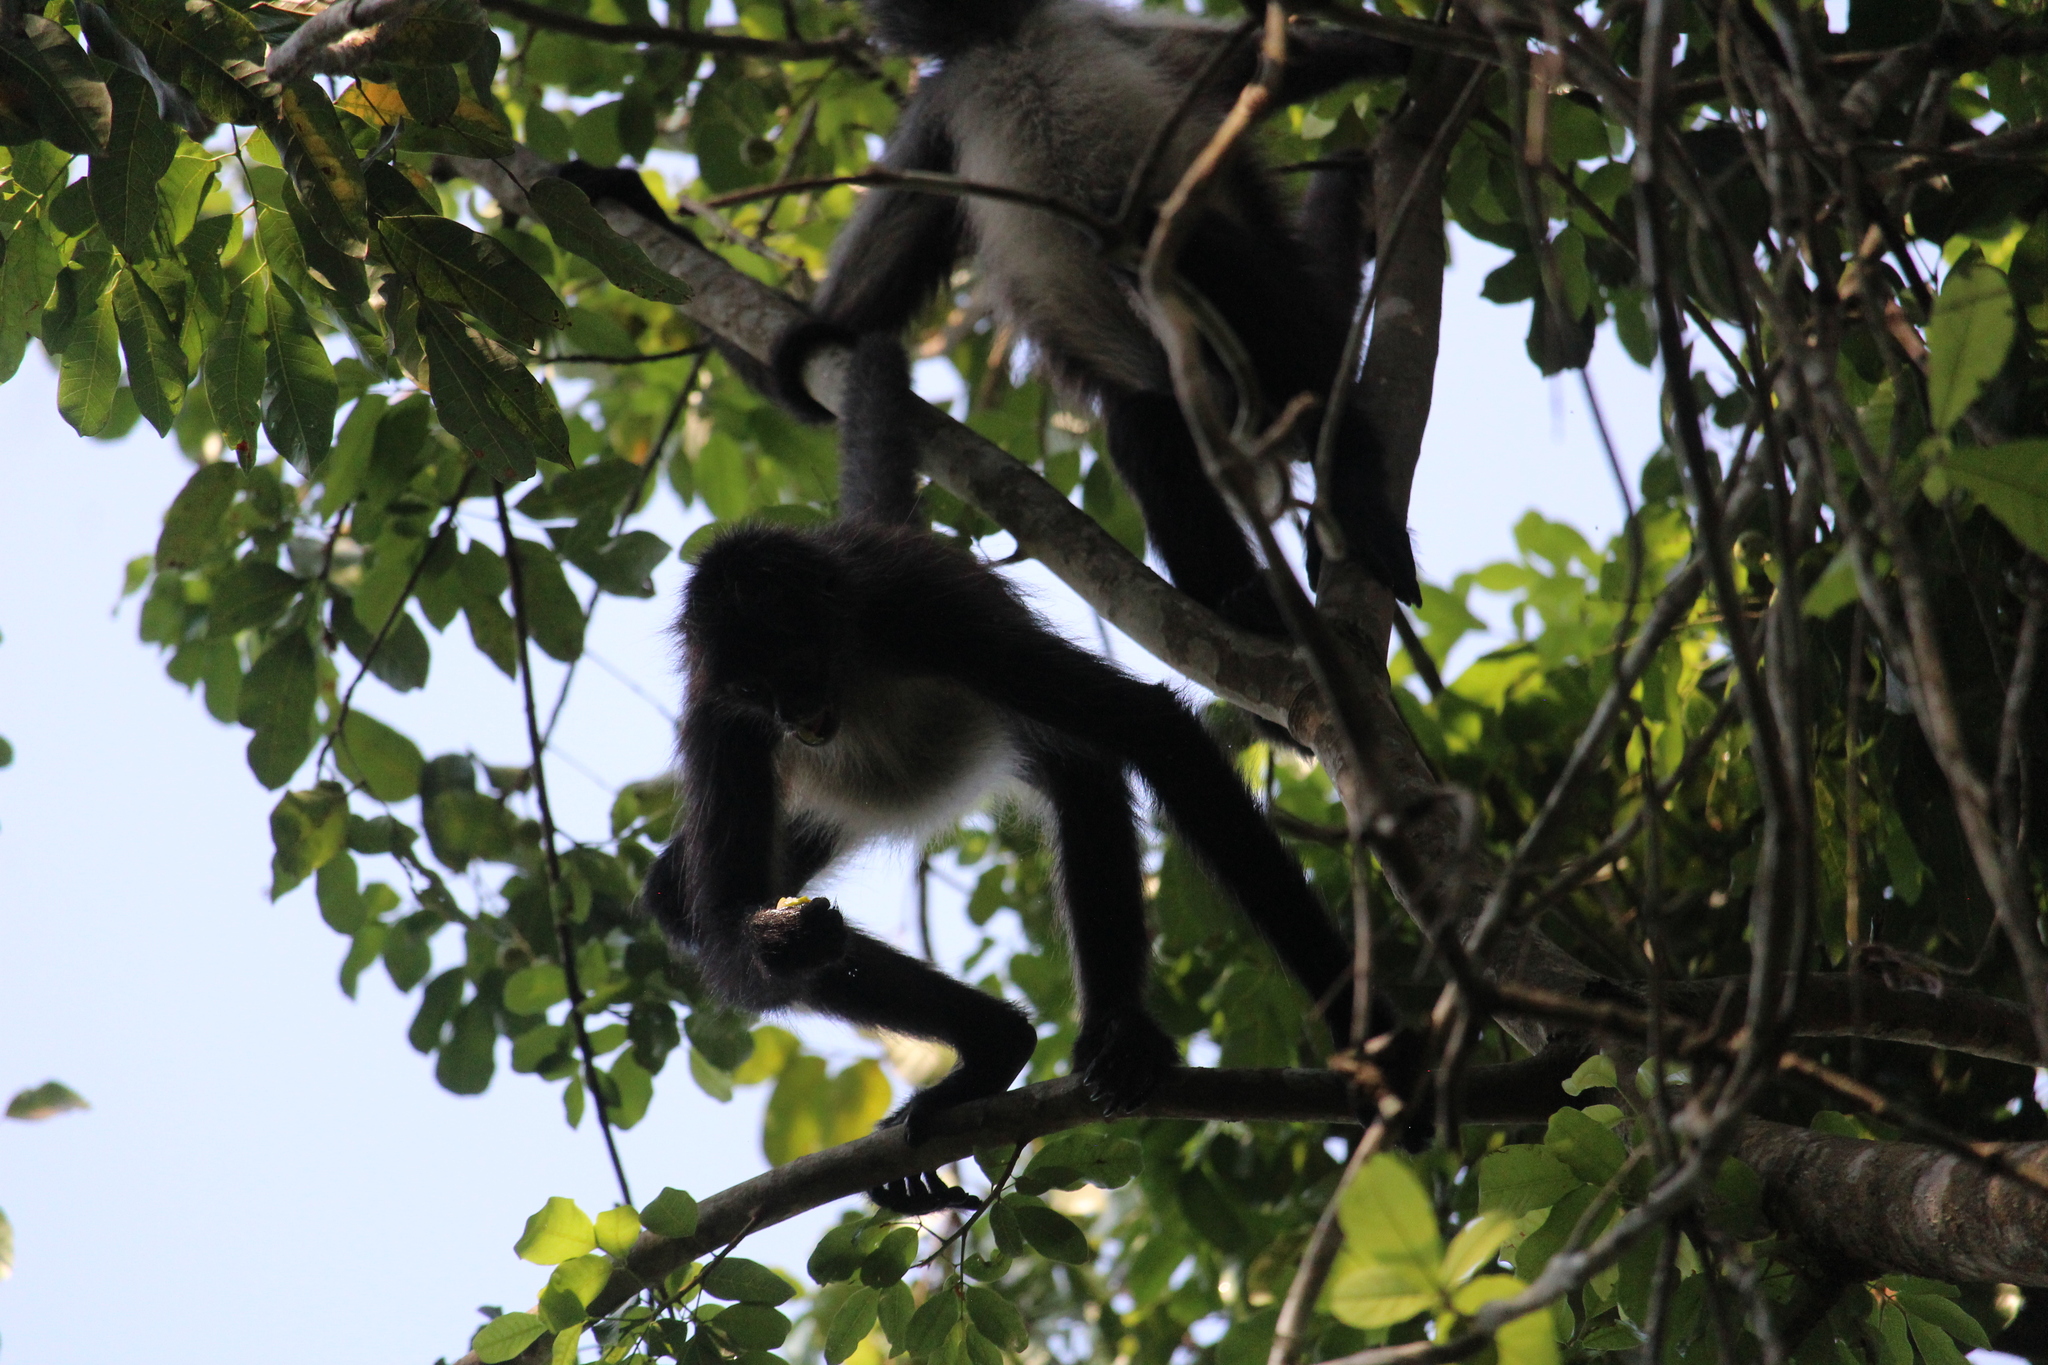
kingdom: Animalia
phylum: Chordata
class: Mammalia
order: Primates
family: Atelidae
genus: Ateles
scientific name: Ateles geoffroyi
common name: Black-handed spider monkey
